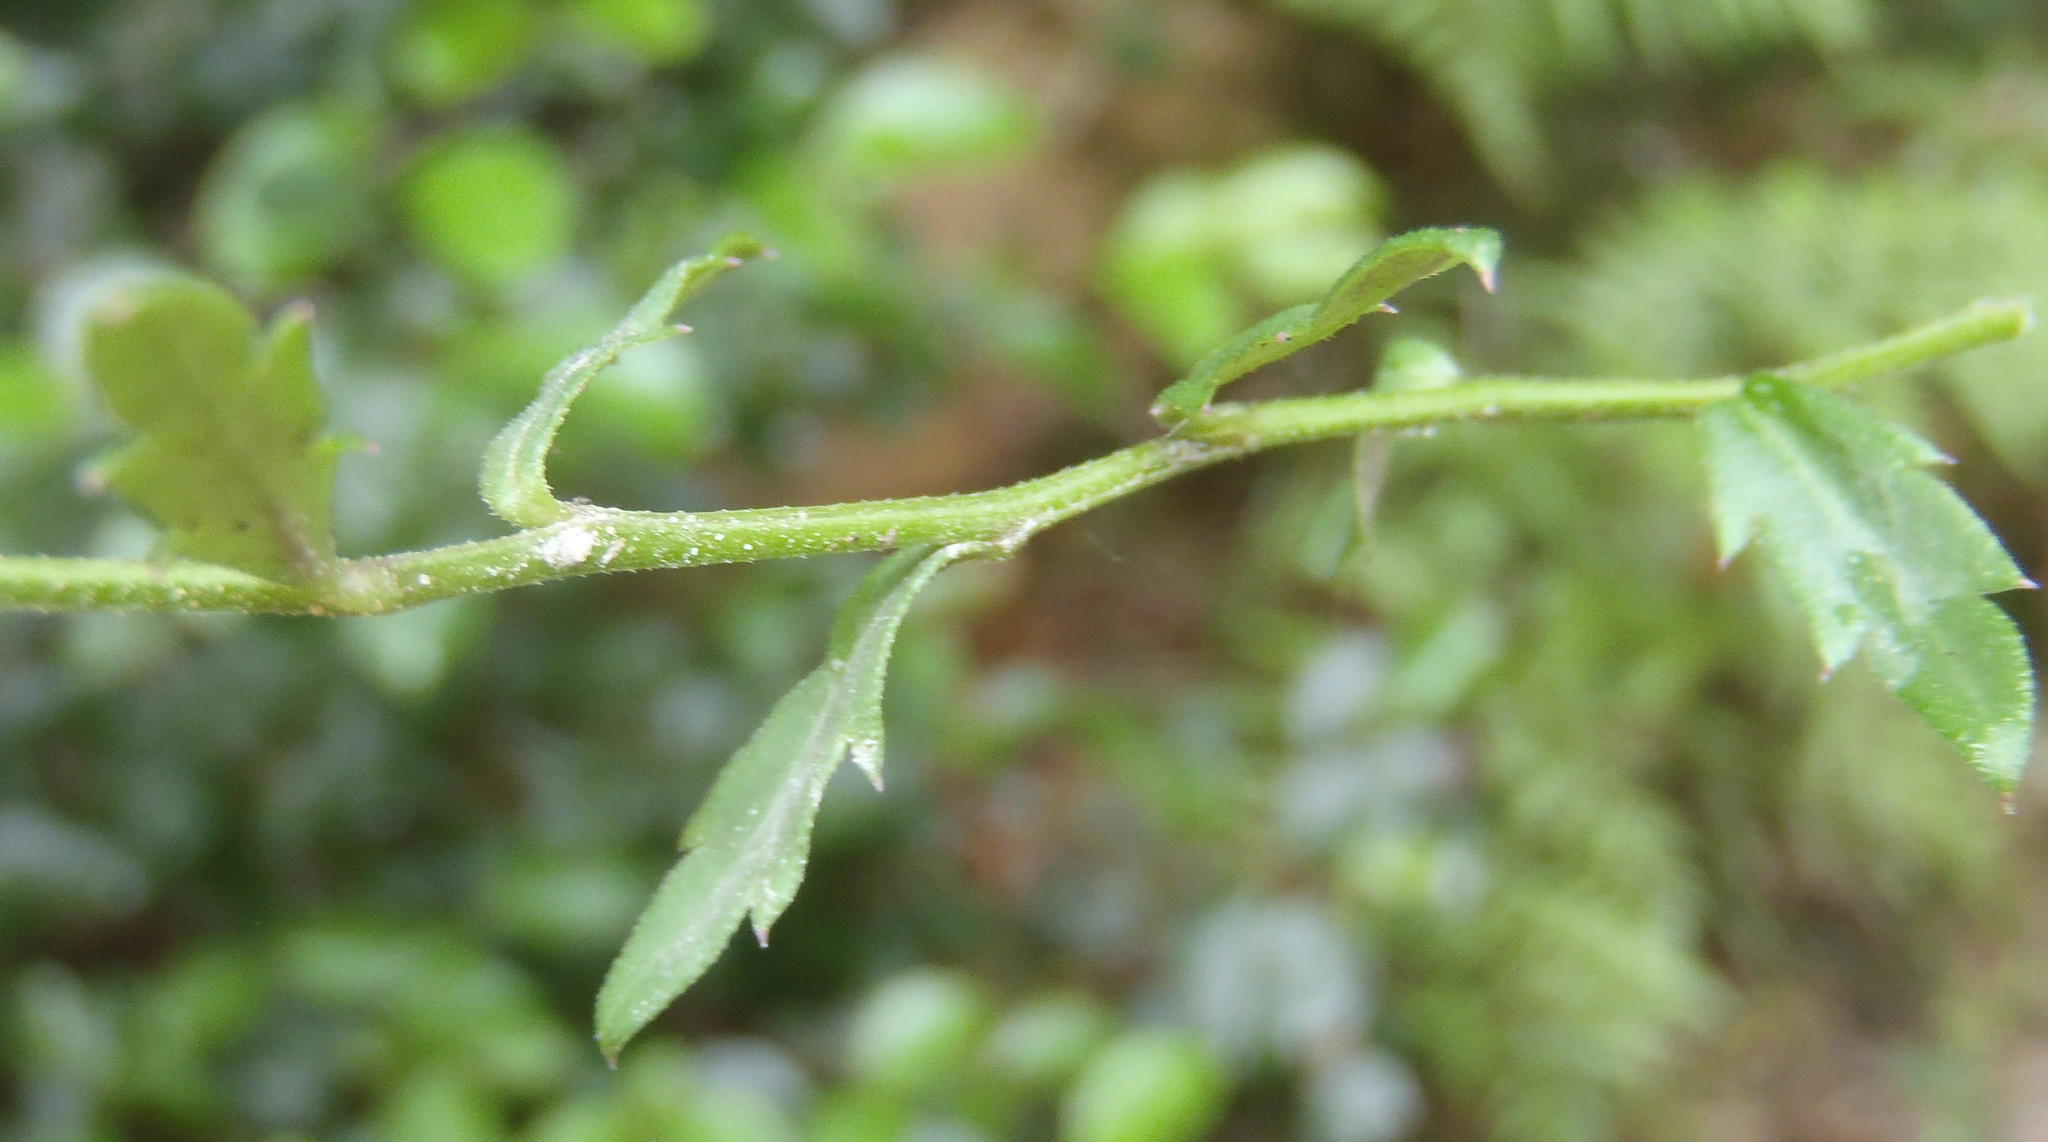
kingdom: Plantae
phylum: Tracheophyta
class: Magnoliopsida
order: Asterales
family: Campanulaceae
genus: Monopsis
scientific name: Monopsis simplex
